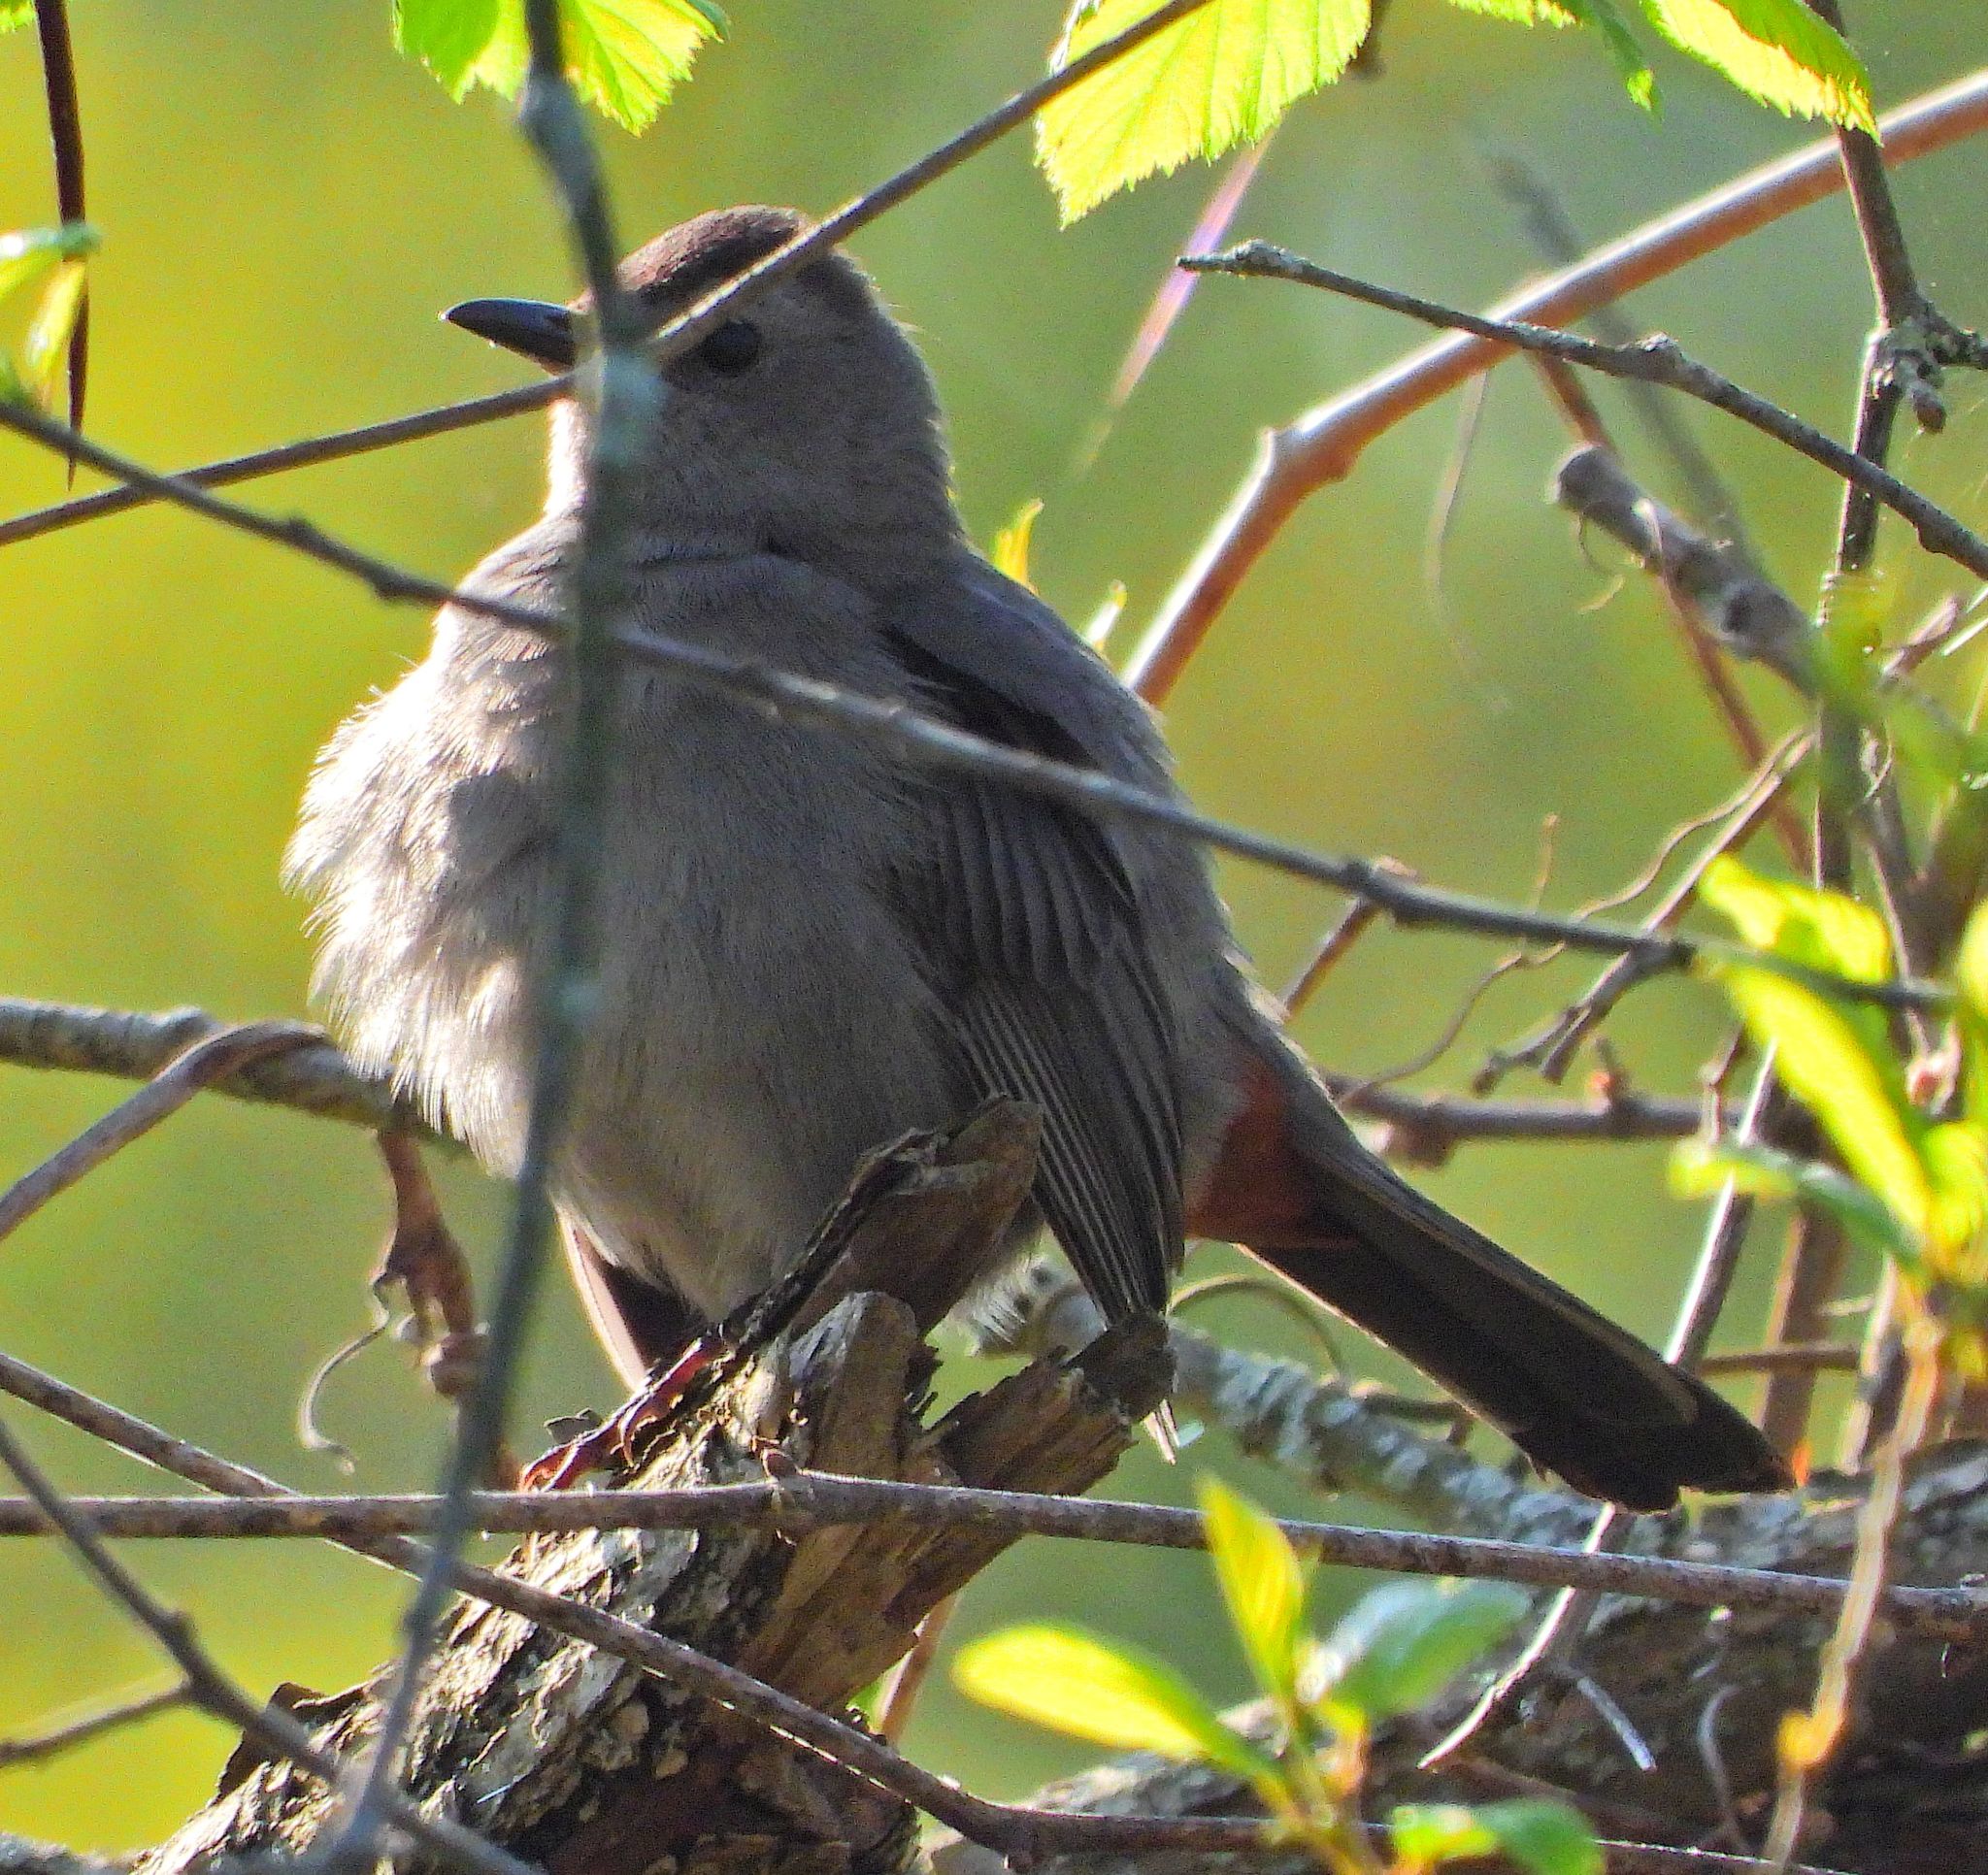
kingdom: Animalia
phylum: Chordata
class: Aves
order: Passeriformes
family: Mimidae
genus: Dumetella
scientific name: Dumetella carolinensis
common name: Gray catbird
